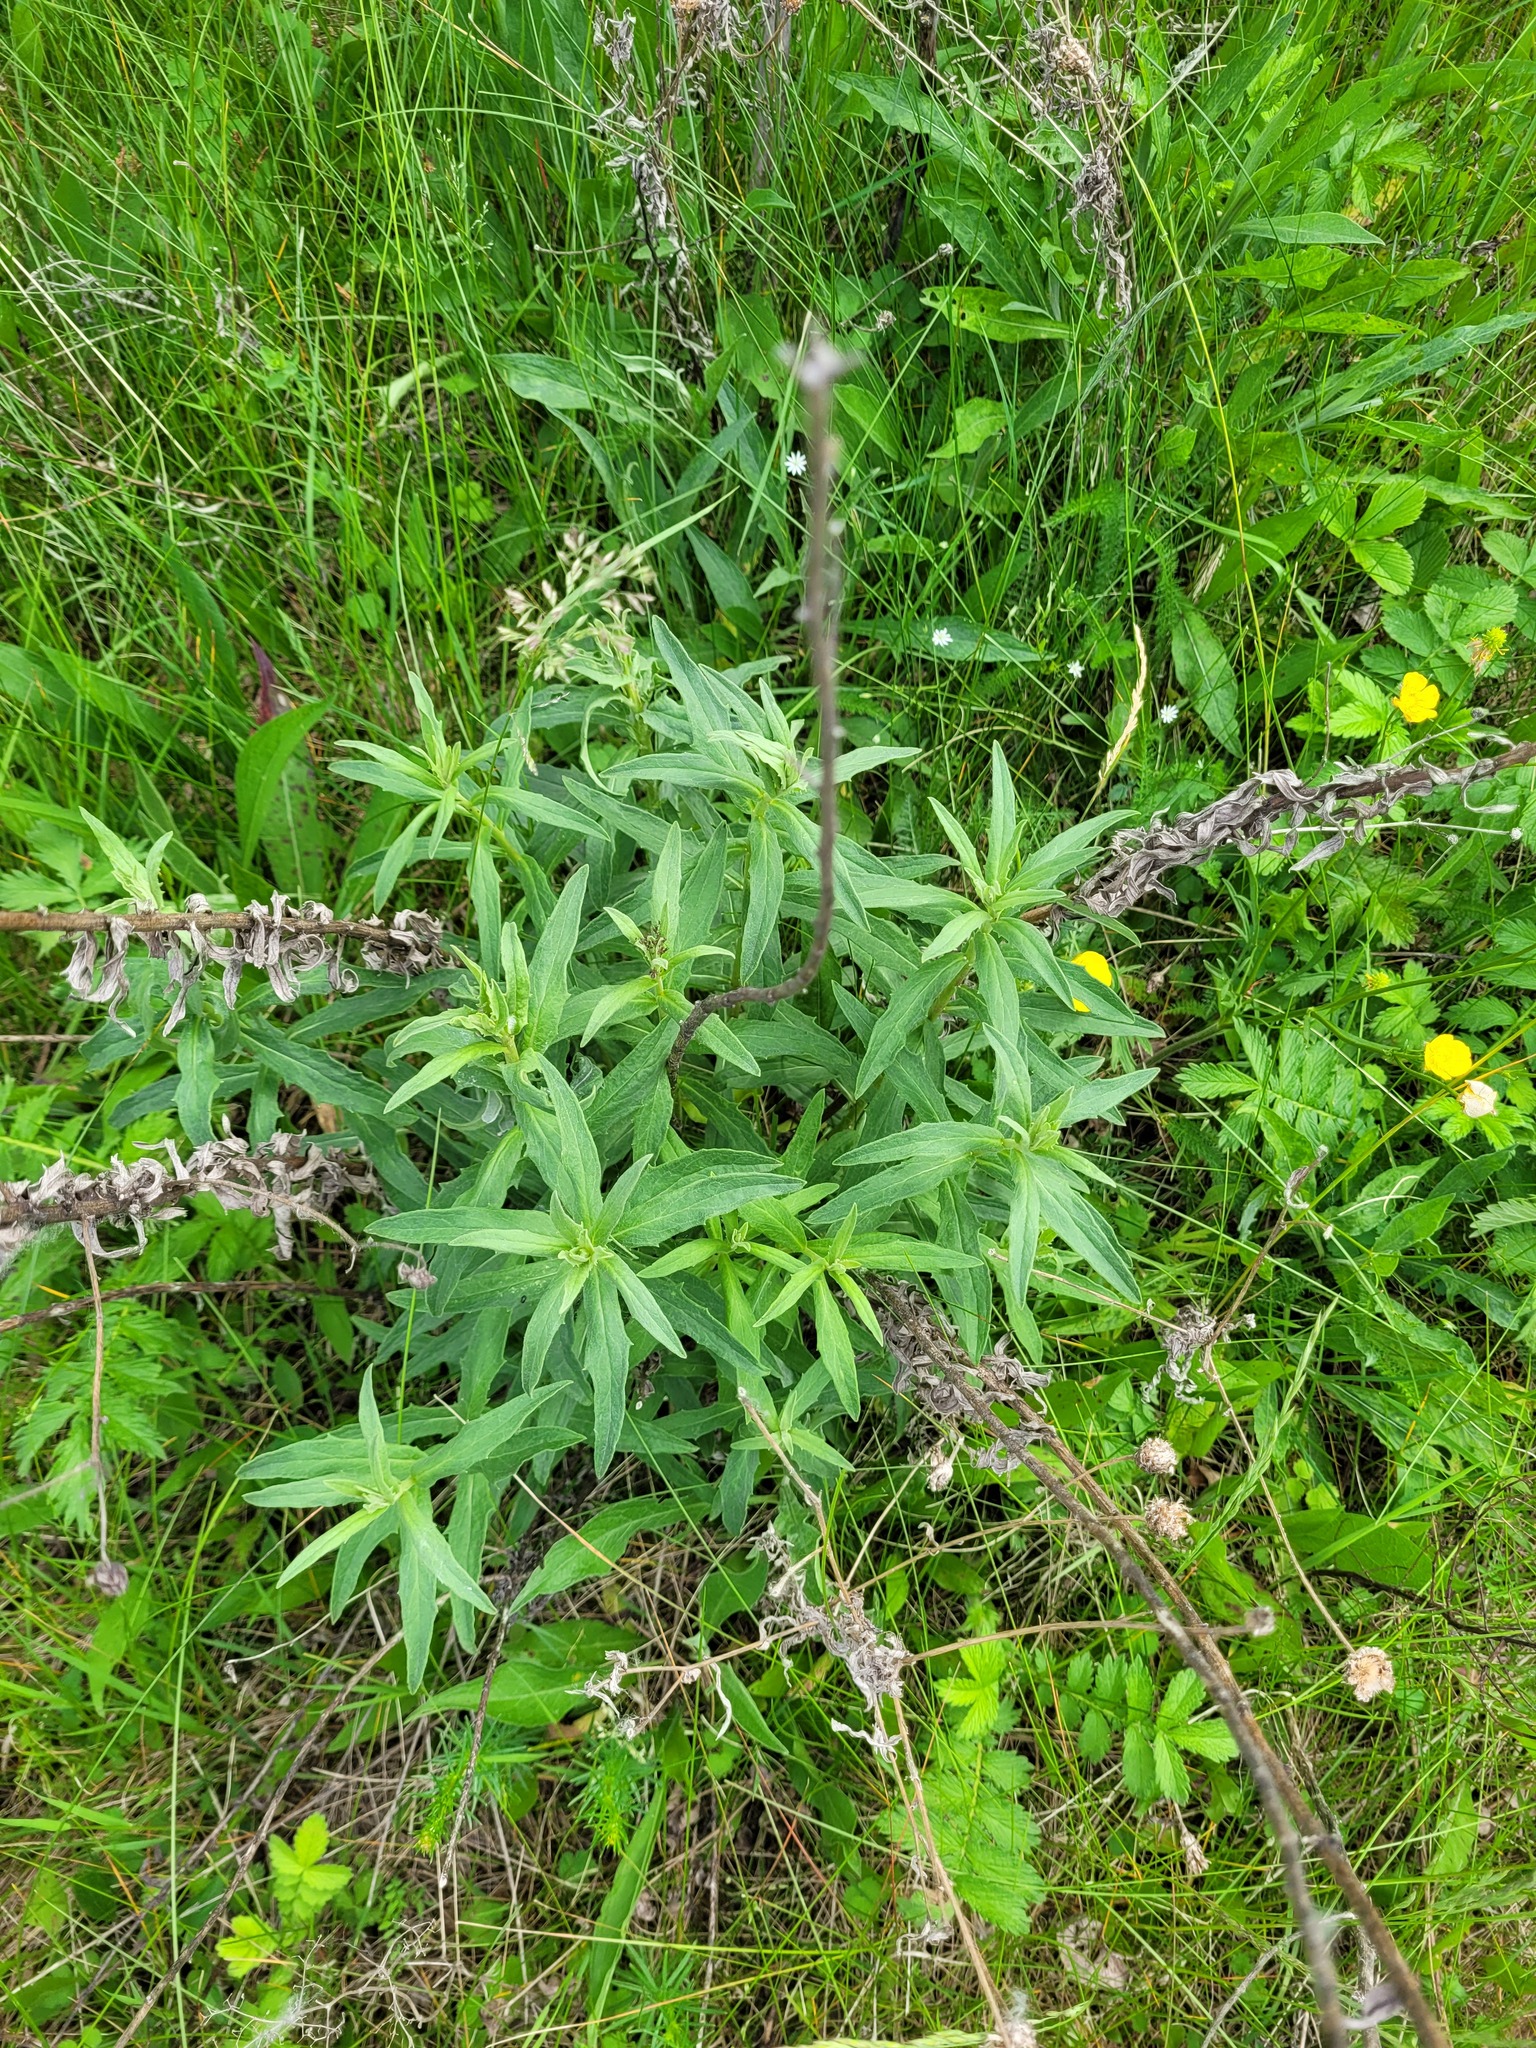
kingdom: Plantae
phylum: Tracheophyta
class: Magnoliopsida
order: Asterales
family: Asteraceae
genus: Hieracium
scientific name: Hieracium umbellatum
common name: Northern hawkweed
